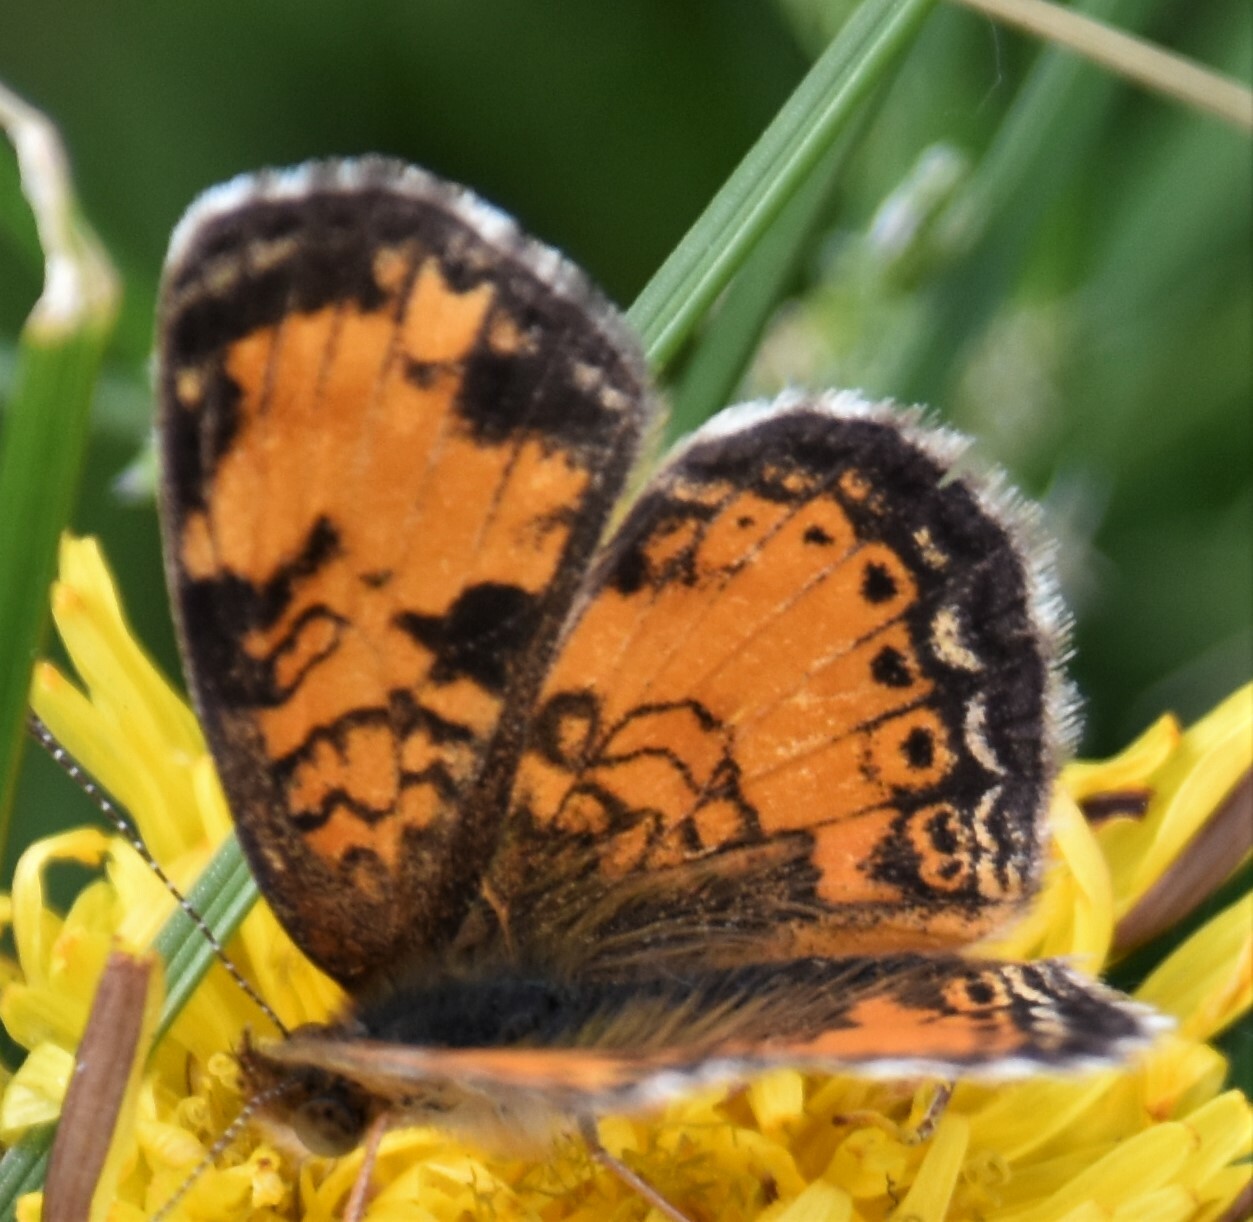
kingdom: Animalia
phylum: Arthropoda
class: Insecta
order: Lepidoptera
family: Nymphalidae
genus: Phyciodes
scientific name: Phyciodes tharos
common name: Pearl crescent
